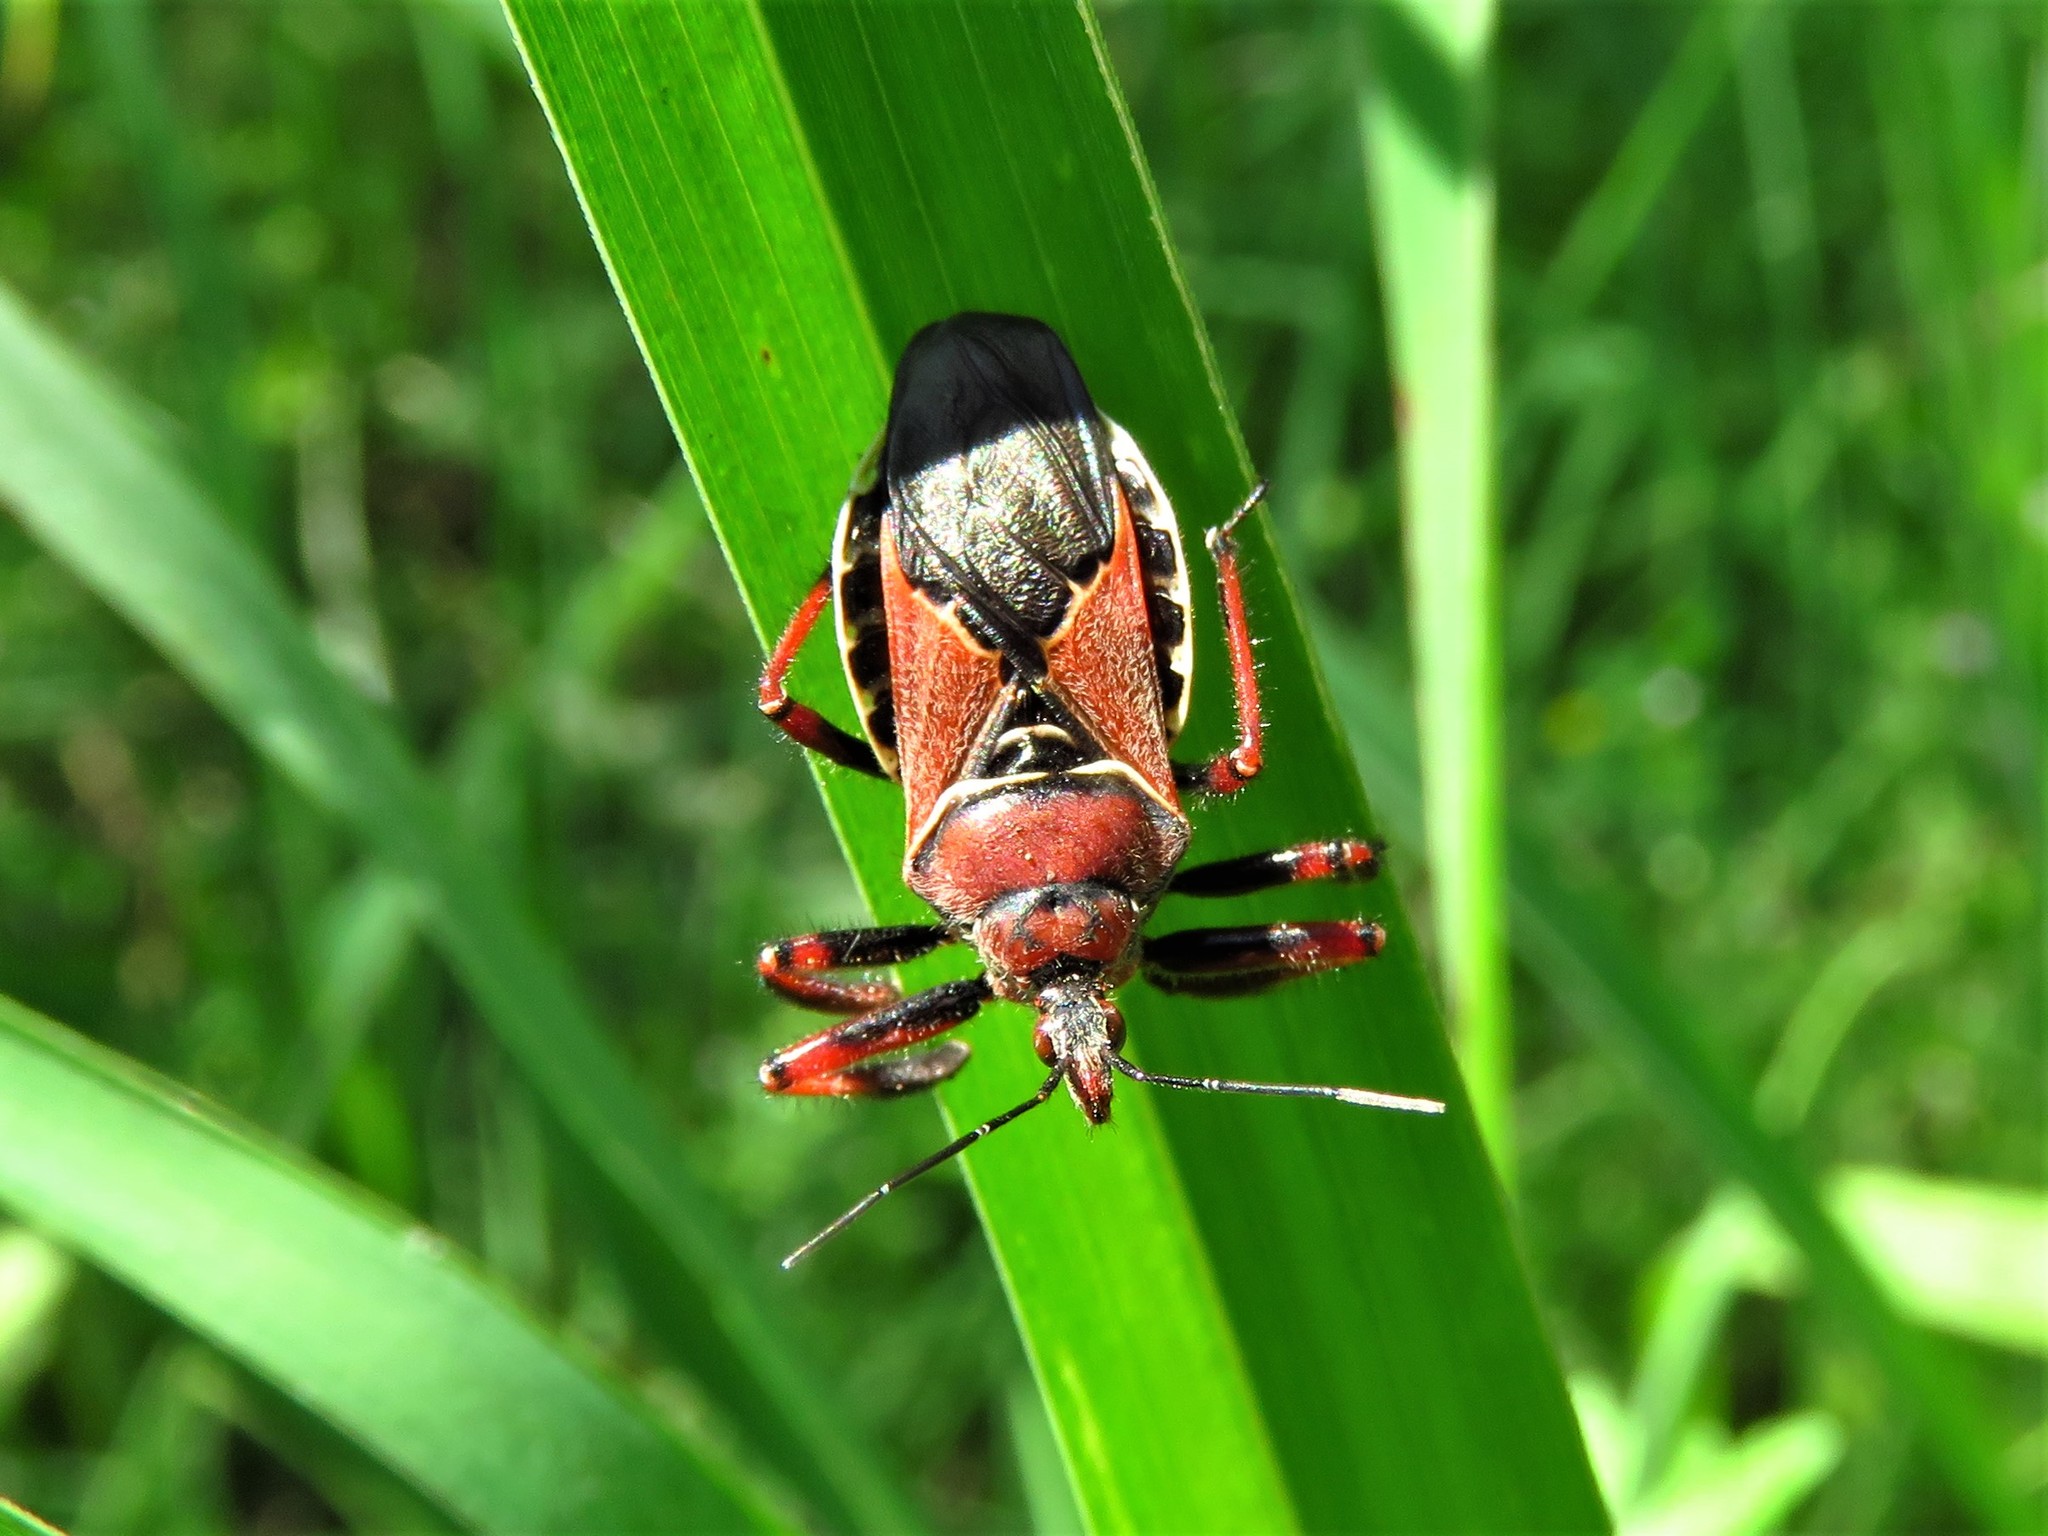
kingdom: Animalia
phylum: Arthropoda
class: Insecta
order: Hemiptera
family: Reduviidae
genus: Apiomerus
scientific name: Apiomerus spissipes
